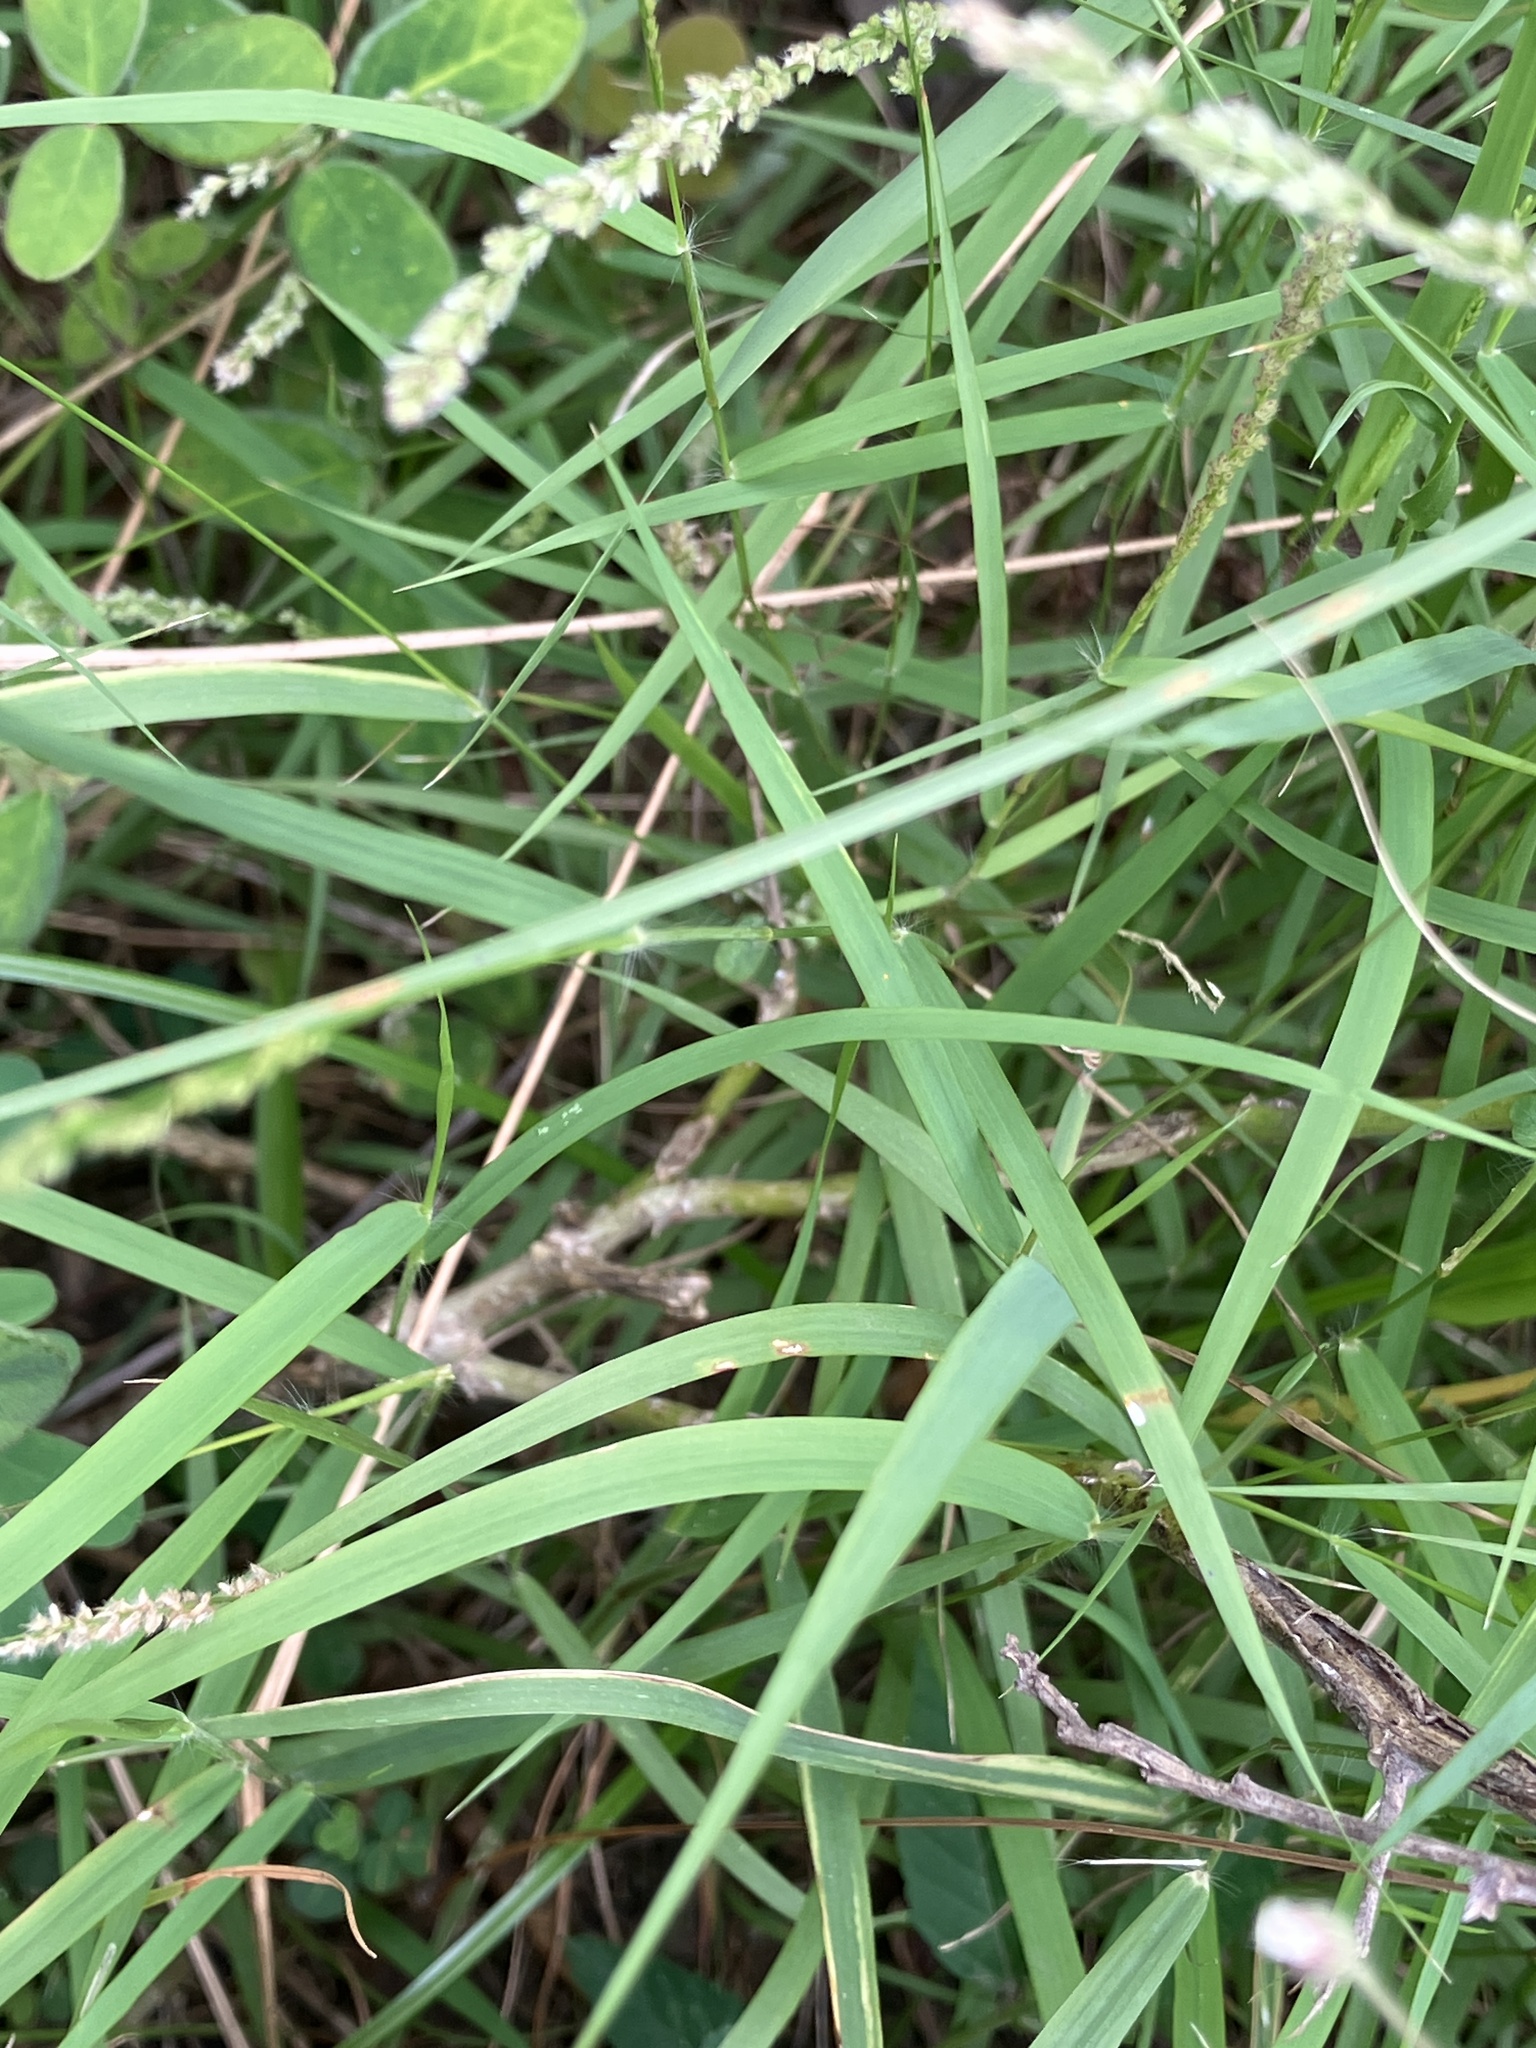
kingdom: Plantae
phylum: Tracheophyta
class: Liliopsida
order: Poales
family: Poaceae
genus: Eragrostis
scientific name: Eragrostis ciliaris
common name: Gophertail lovegrass
